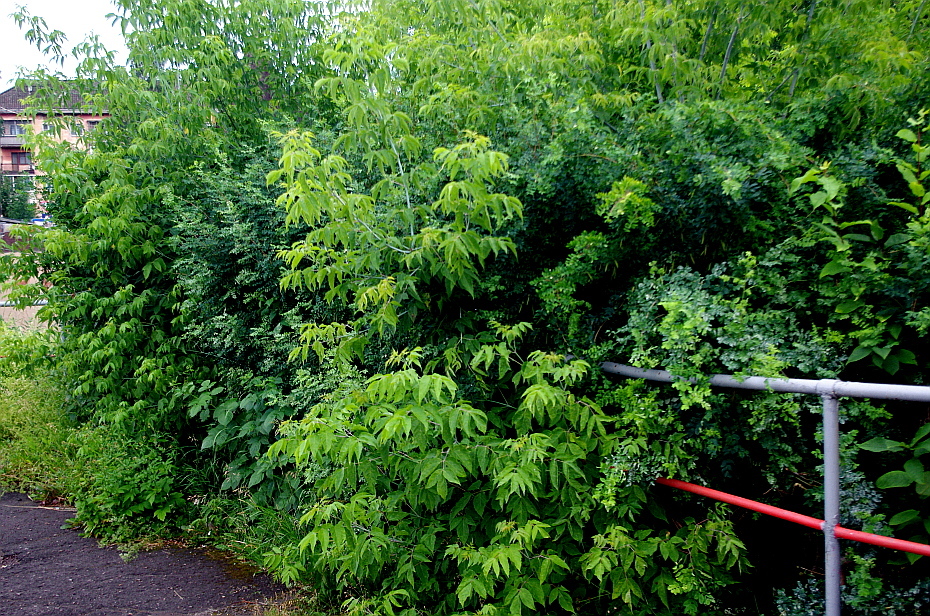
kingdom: Plantae
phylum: Tracheophyta
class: Magnoliopsida
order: Sapindales
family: Sapindaceae
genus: Acer
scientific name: Acer negundo
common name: Ashleaf maple
